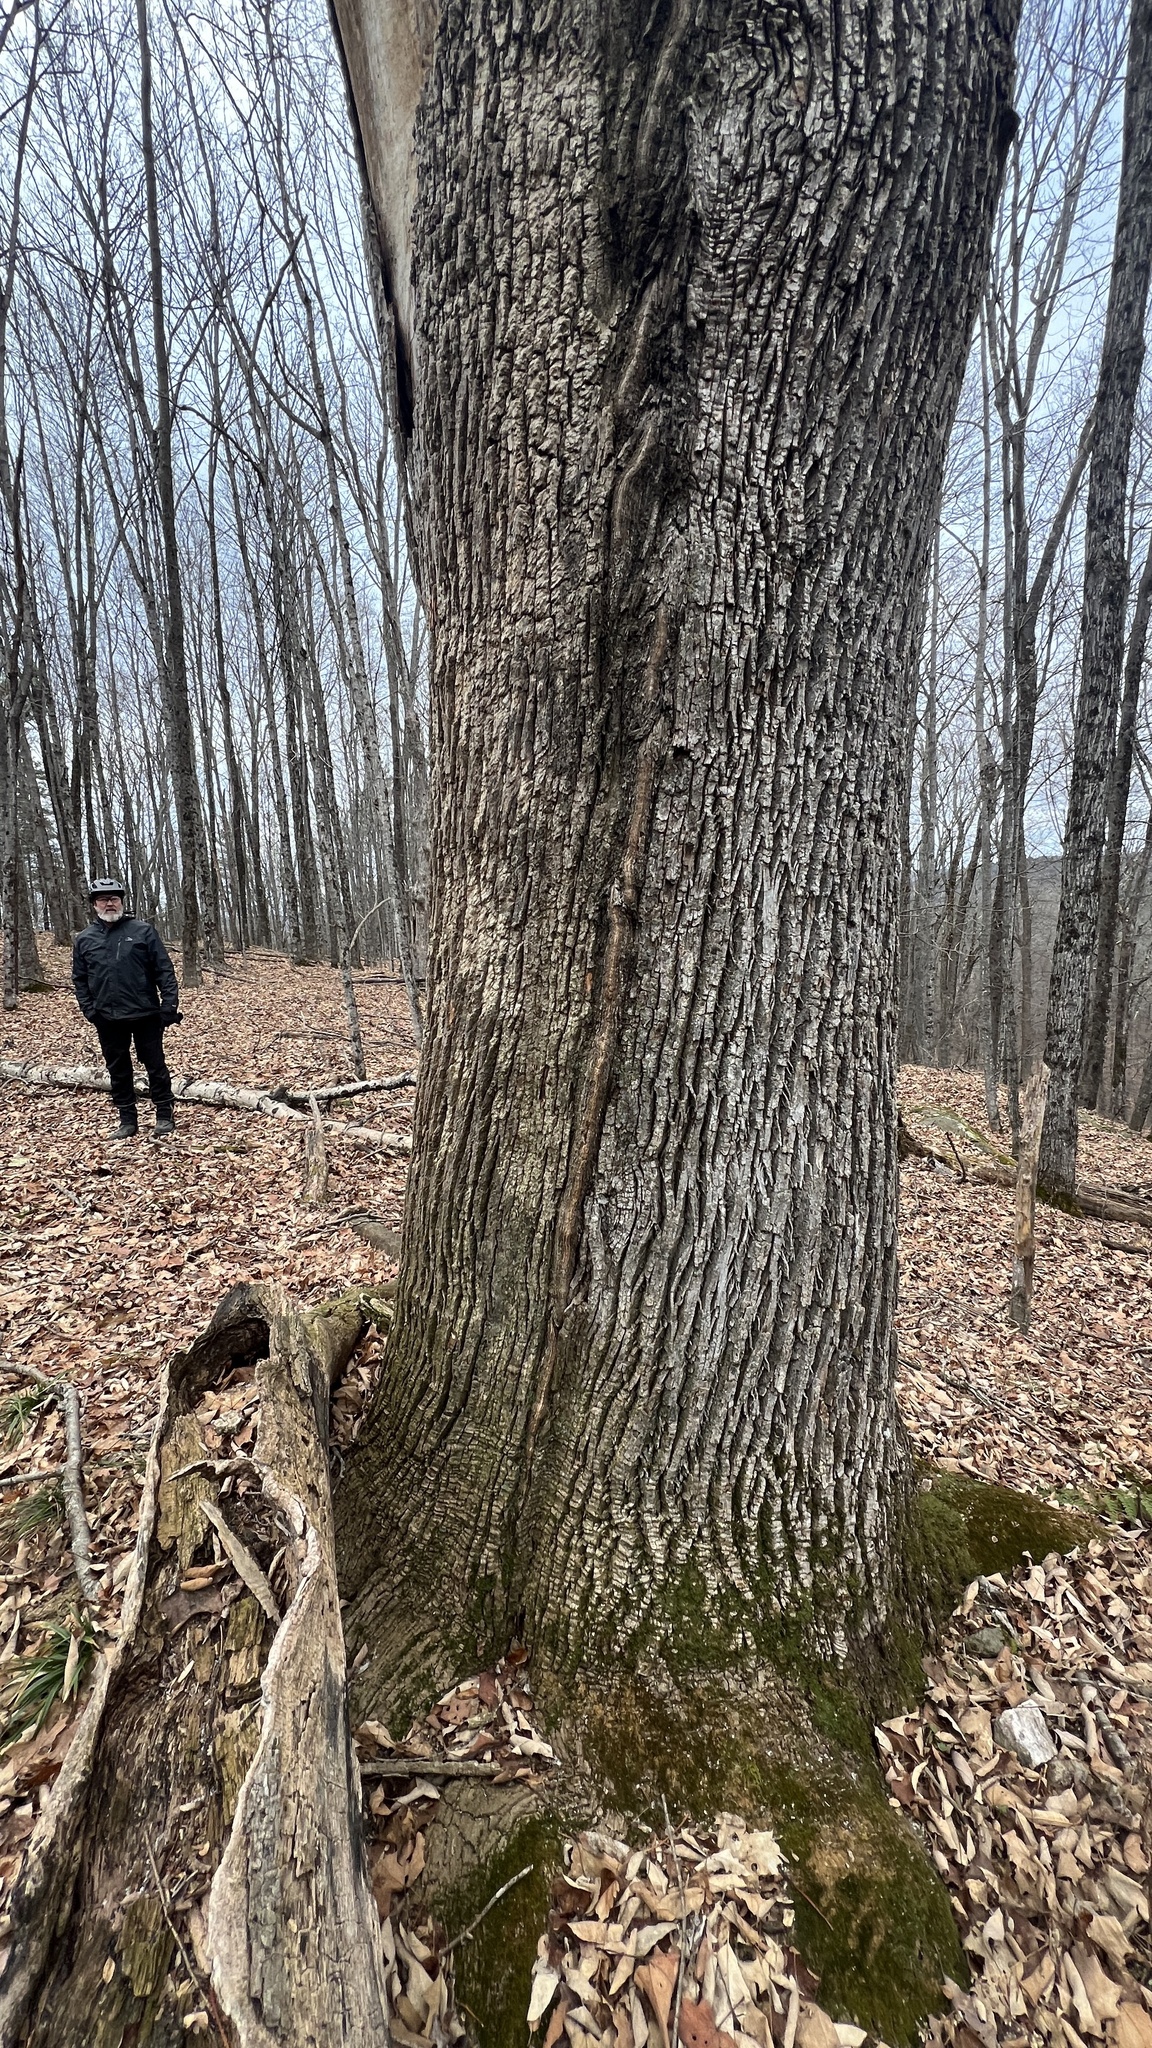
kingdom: Plantae
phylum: Tracheophyta
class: Magnoliopsida
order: Lamiales
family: Oleaceae
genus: Fraxinus
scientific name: Fraxinus americana
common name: White ash
